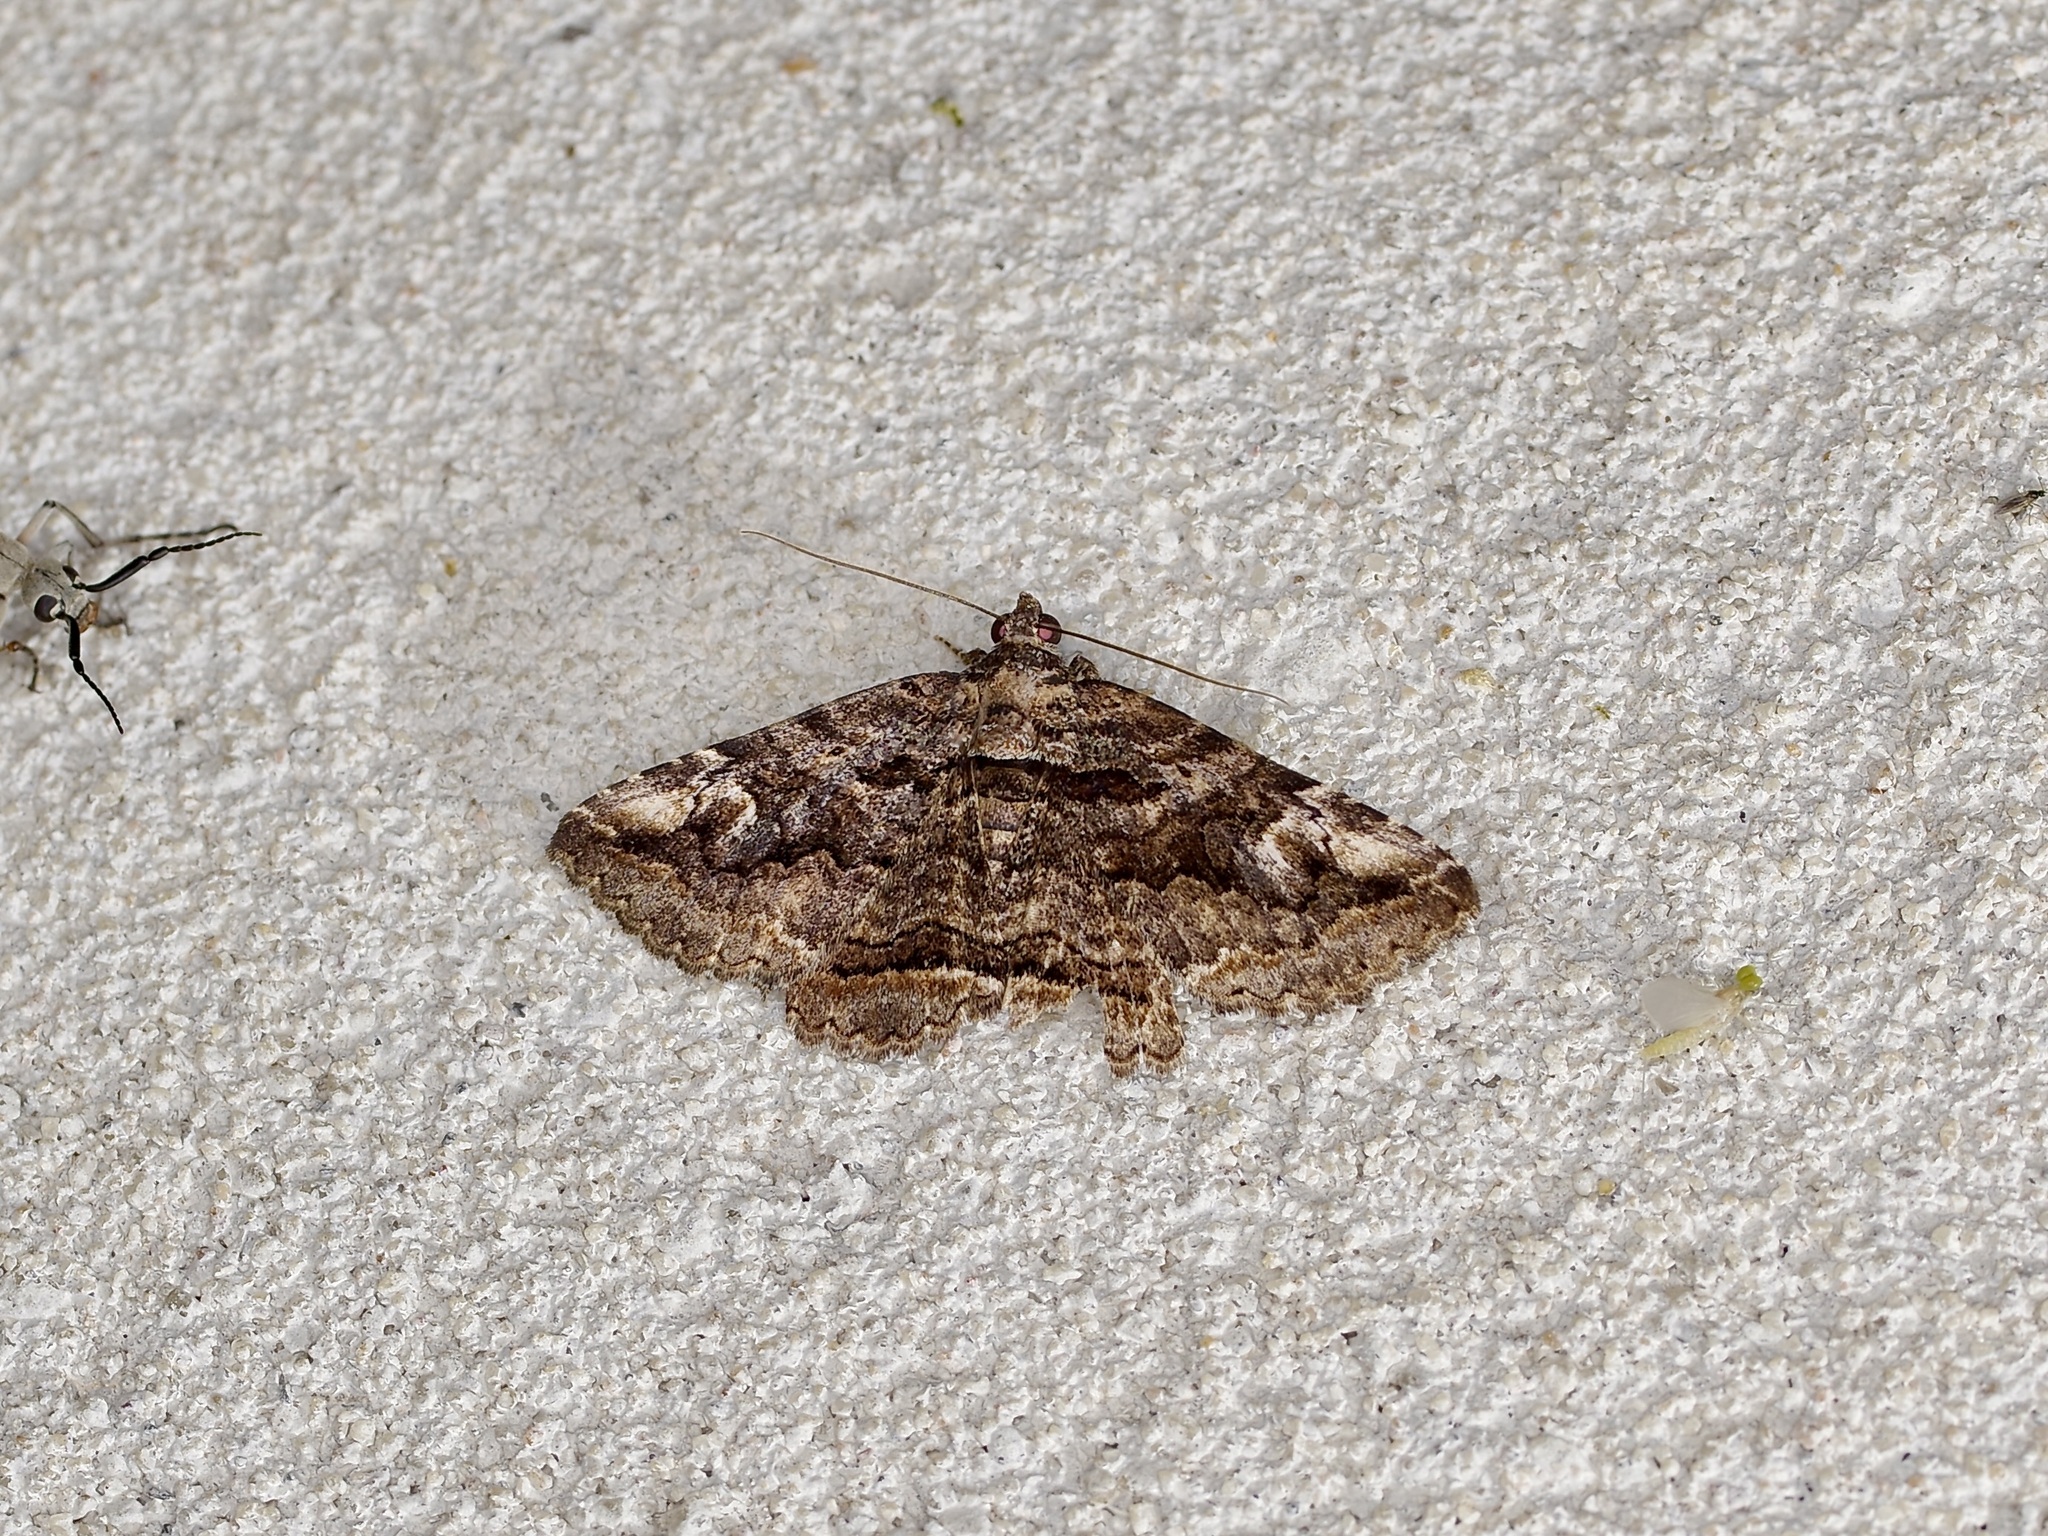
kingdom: Animalia
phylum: Arthropoda
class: Insecta
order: Lepidoptera
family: Erebidae
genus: Zaleops
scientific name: Zaleops umbrina
